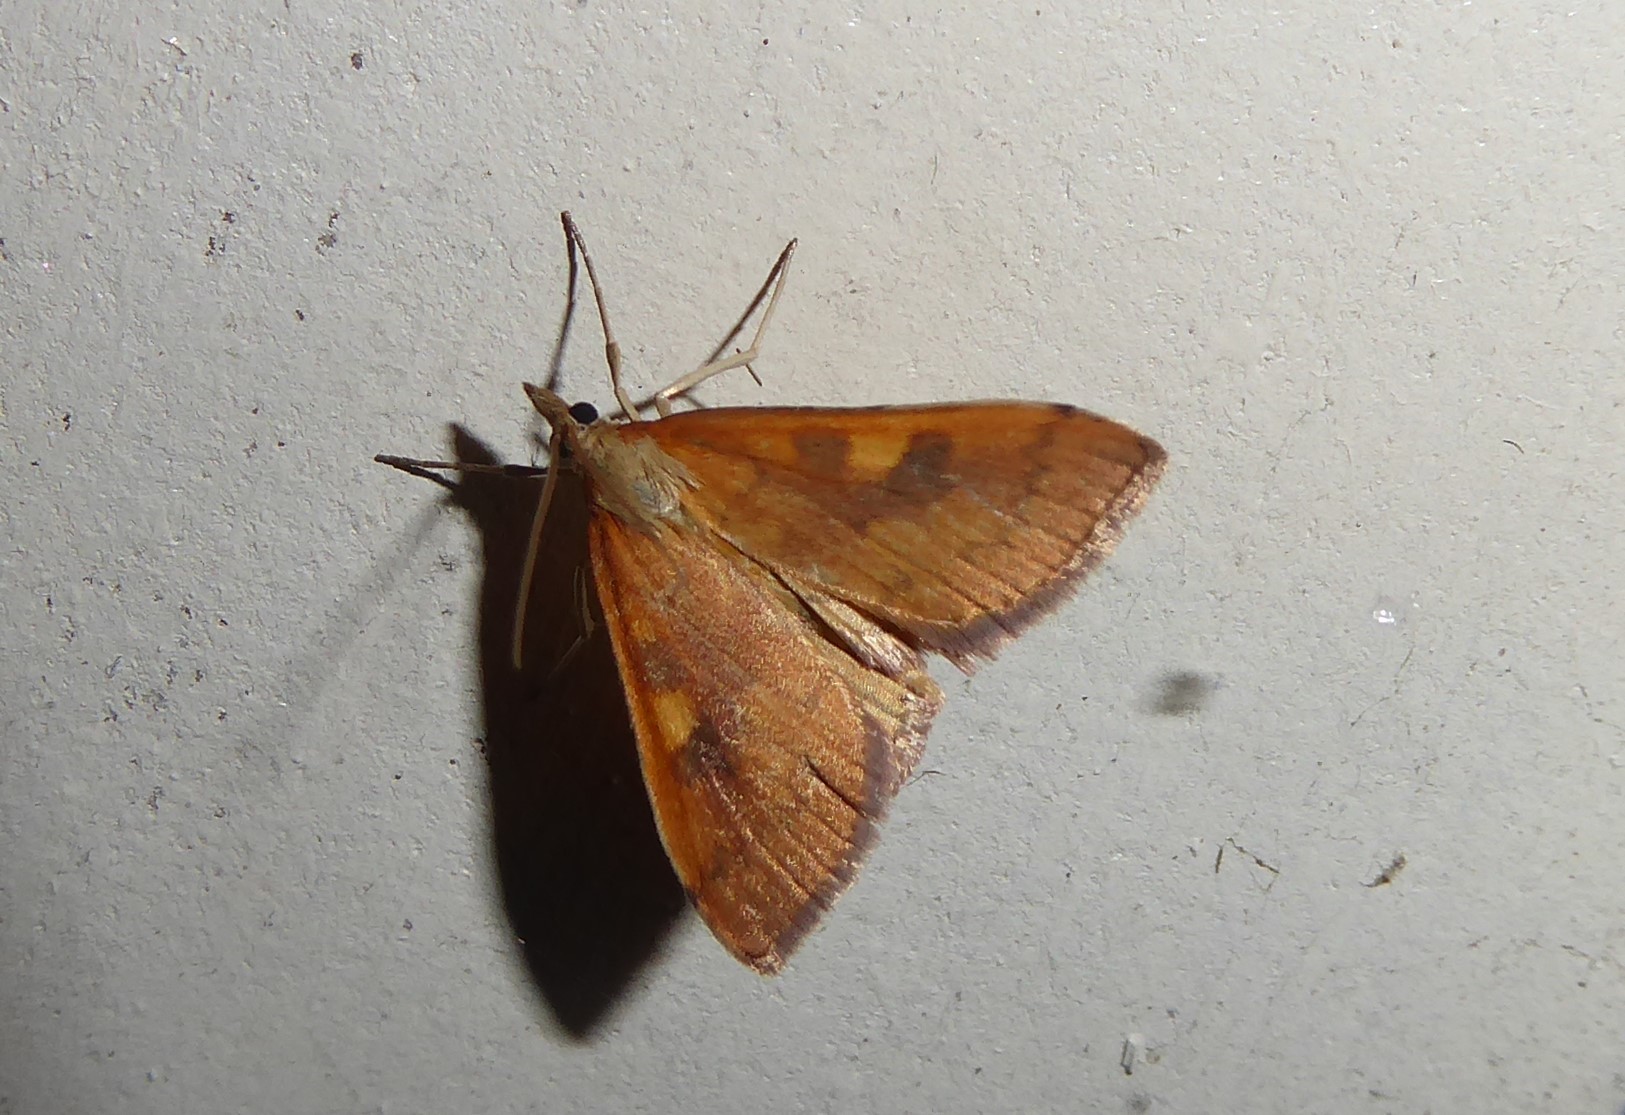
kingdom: Animalia
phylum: Arthropoda
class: Insecta
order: Lepidoptera
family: Crambidae
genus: Udea
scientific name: Udea Mnesictena flavidalis
